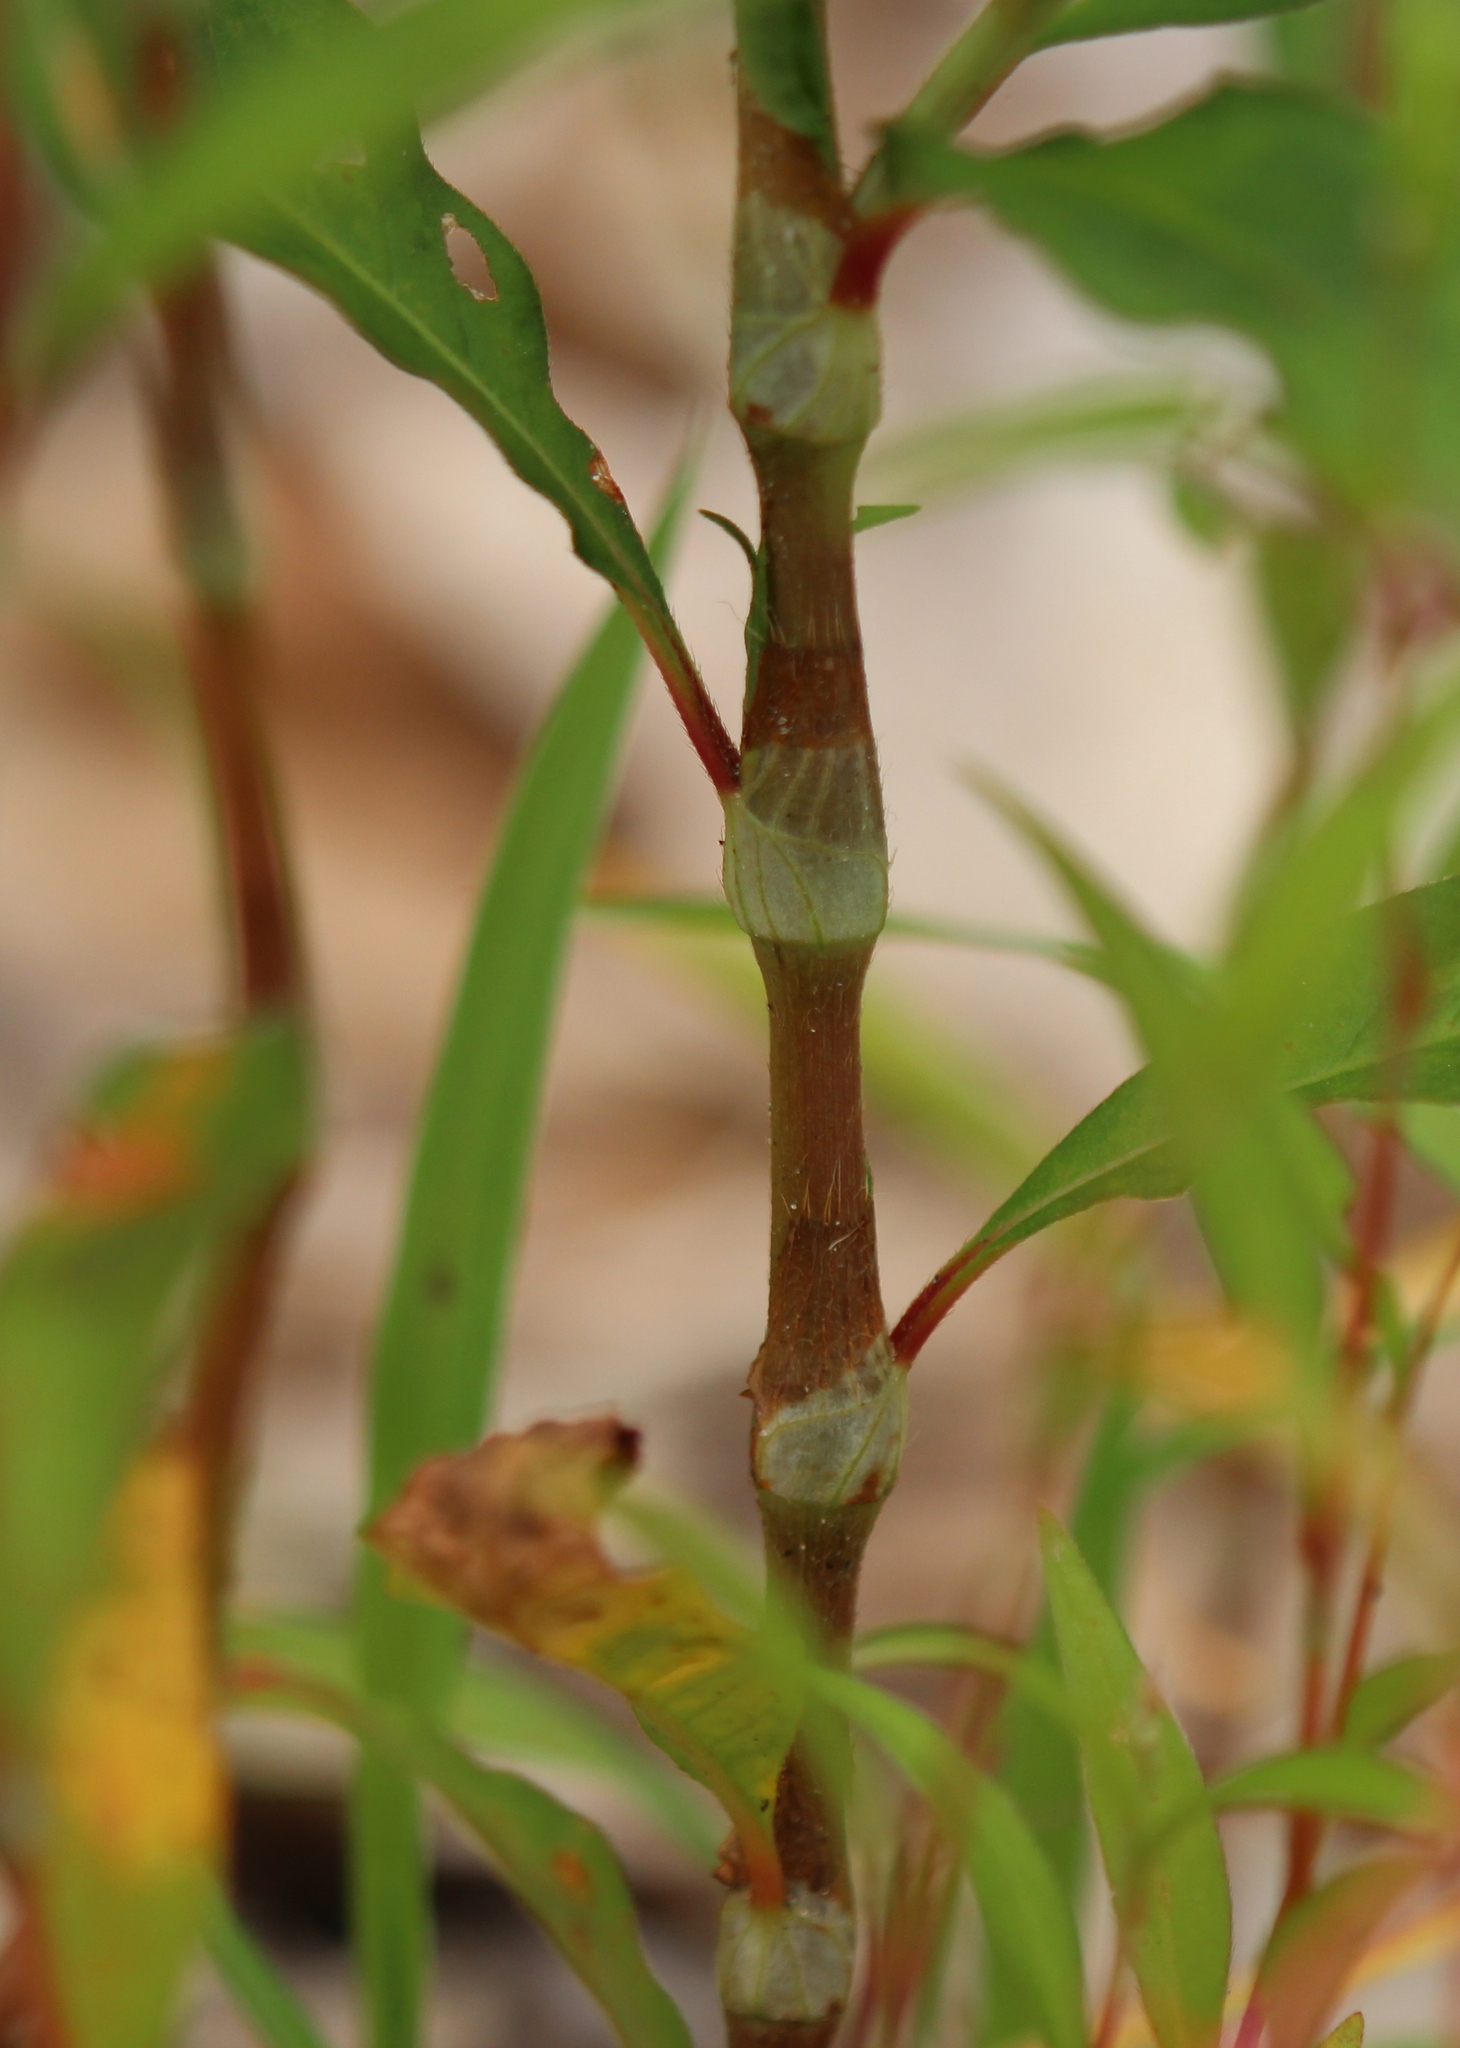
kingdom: Plantae
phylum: Tracheophyta
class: Magnoliopsida
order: Caryophyllales
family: Polygonaceae
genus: Persicaria
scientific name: Persicaria extremiorientalis
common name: Far-eastern smartweed
